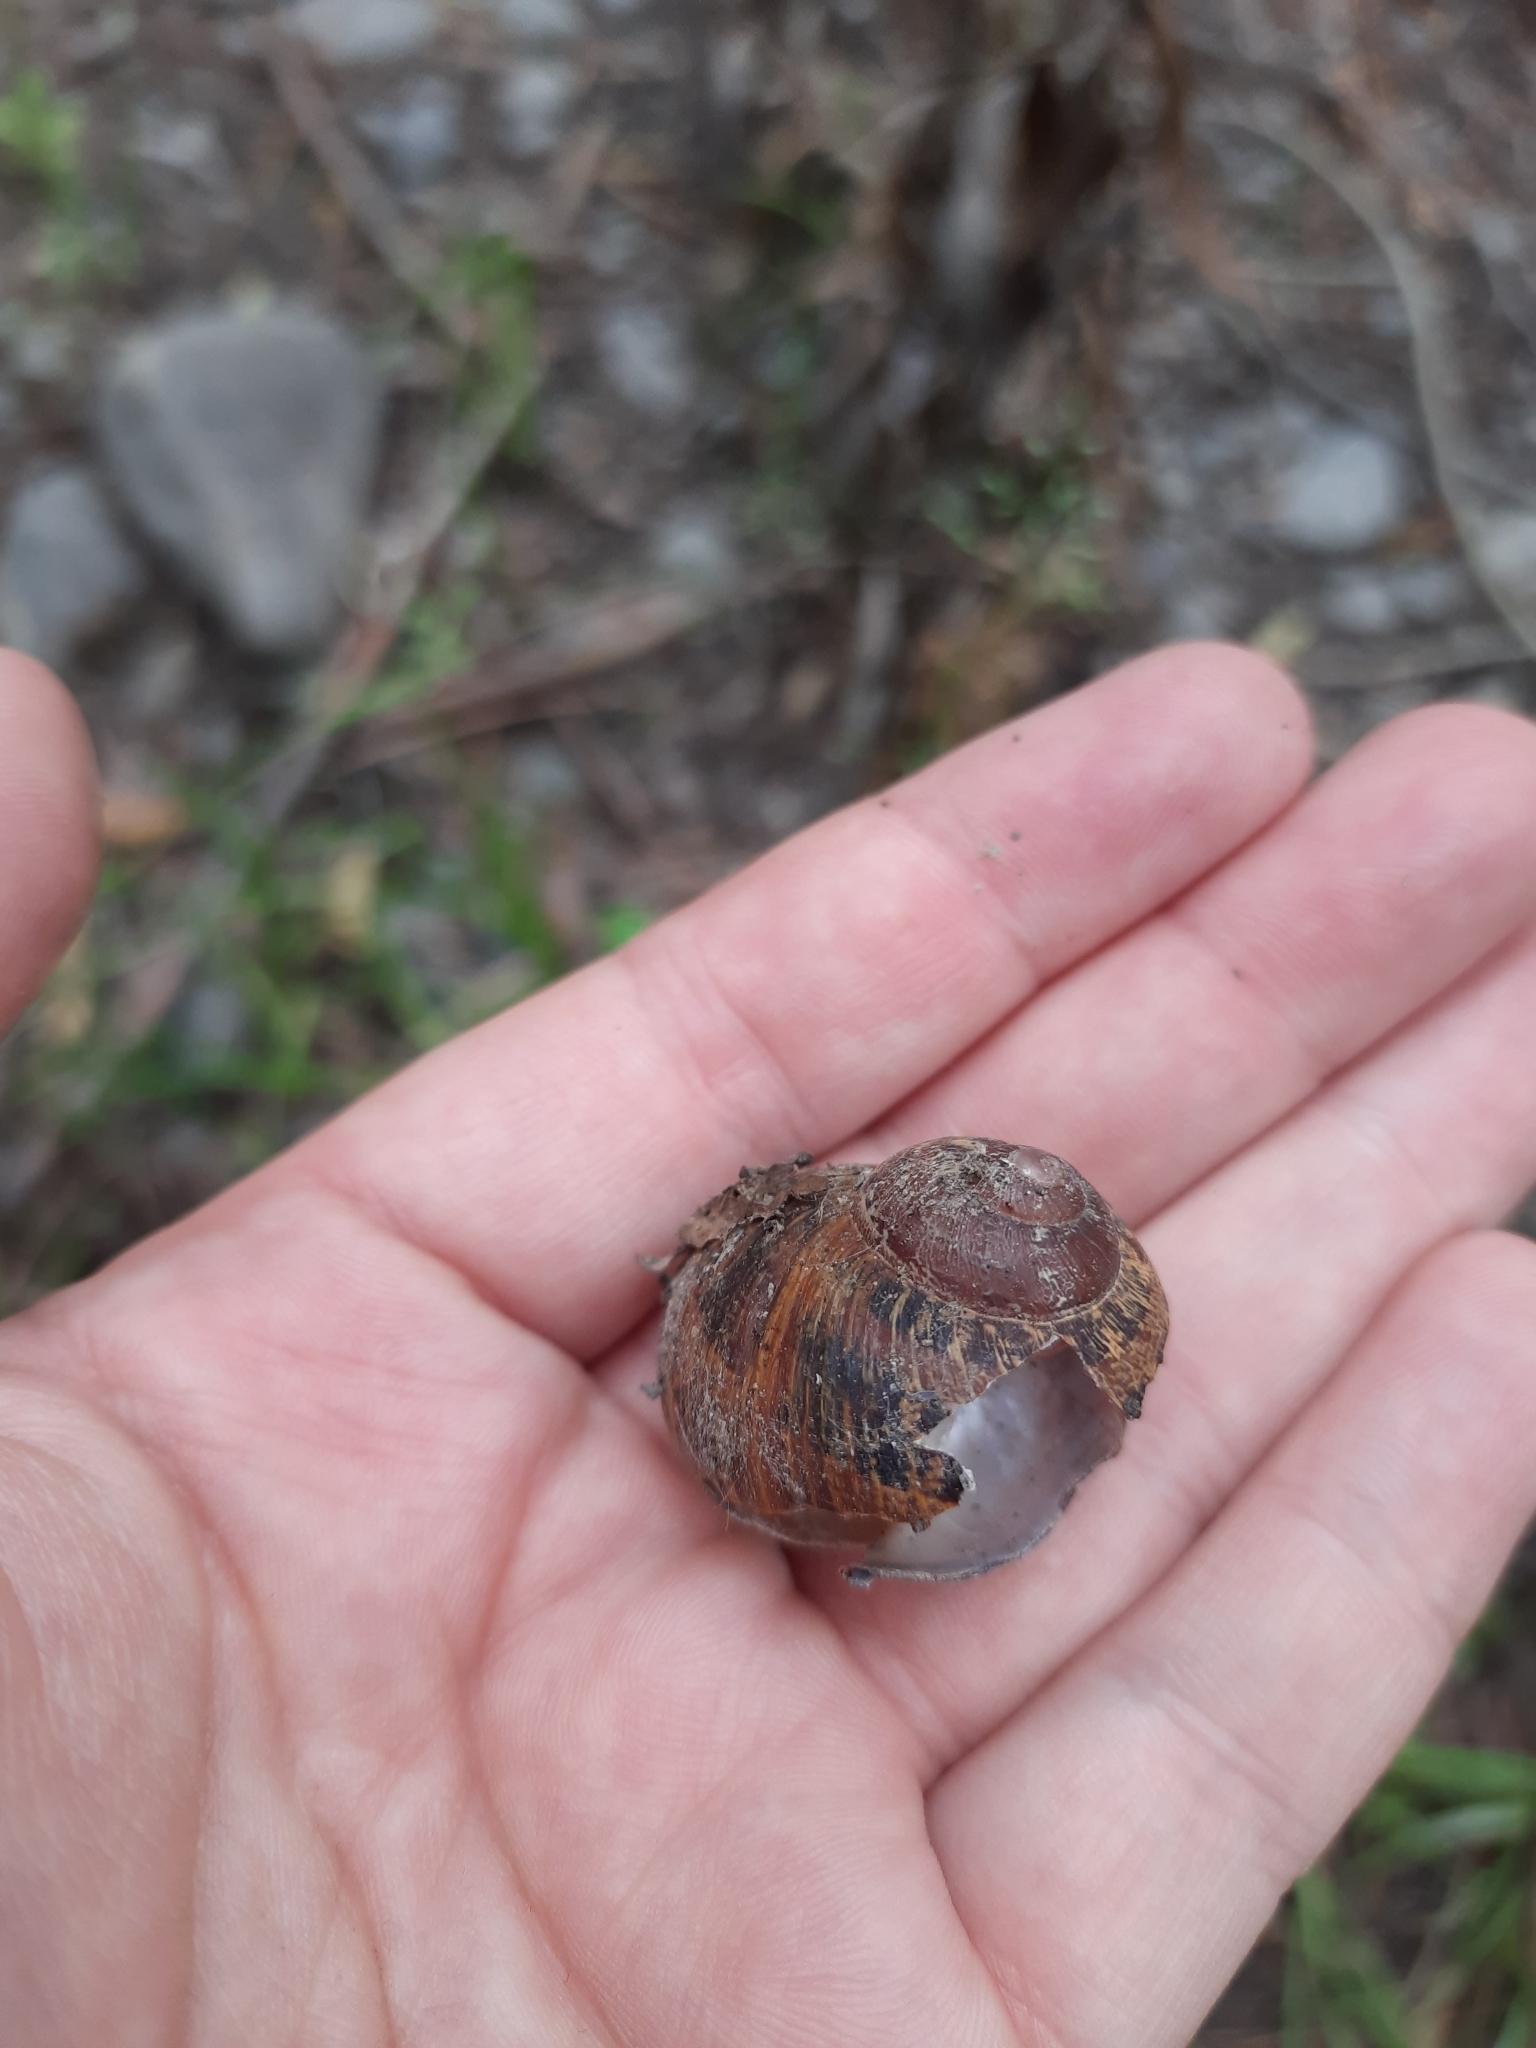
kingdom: Animalia
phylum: Mollusca
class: Gastropoda
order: Stylommatophora
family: Helicidae
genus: Cornu
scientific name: Cornu aspersum
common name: Brown garden snail
